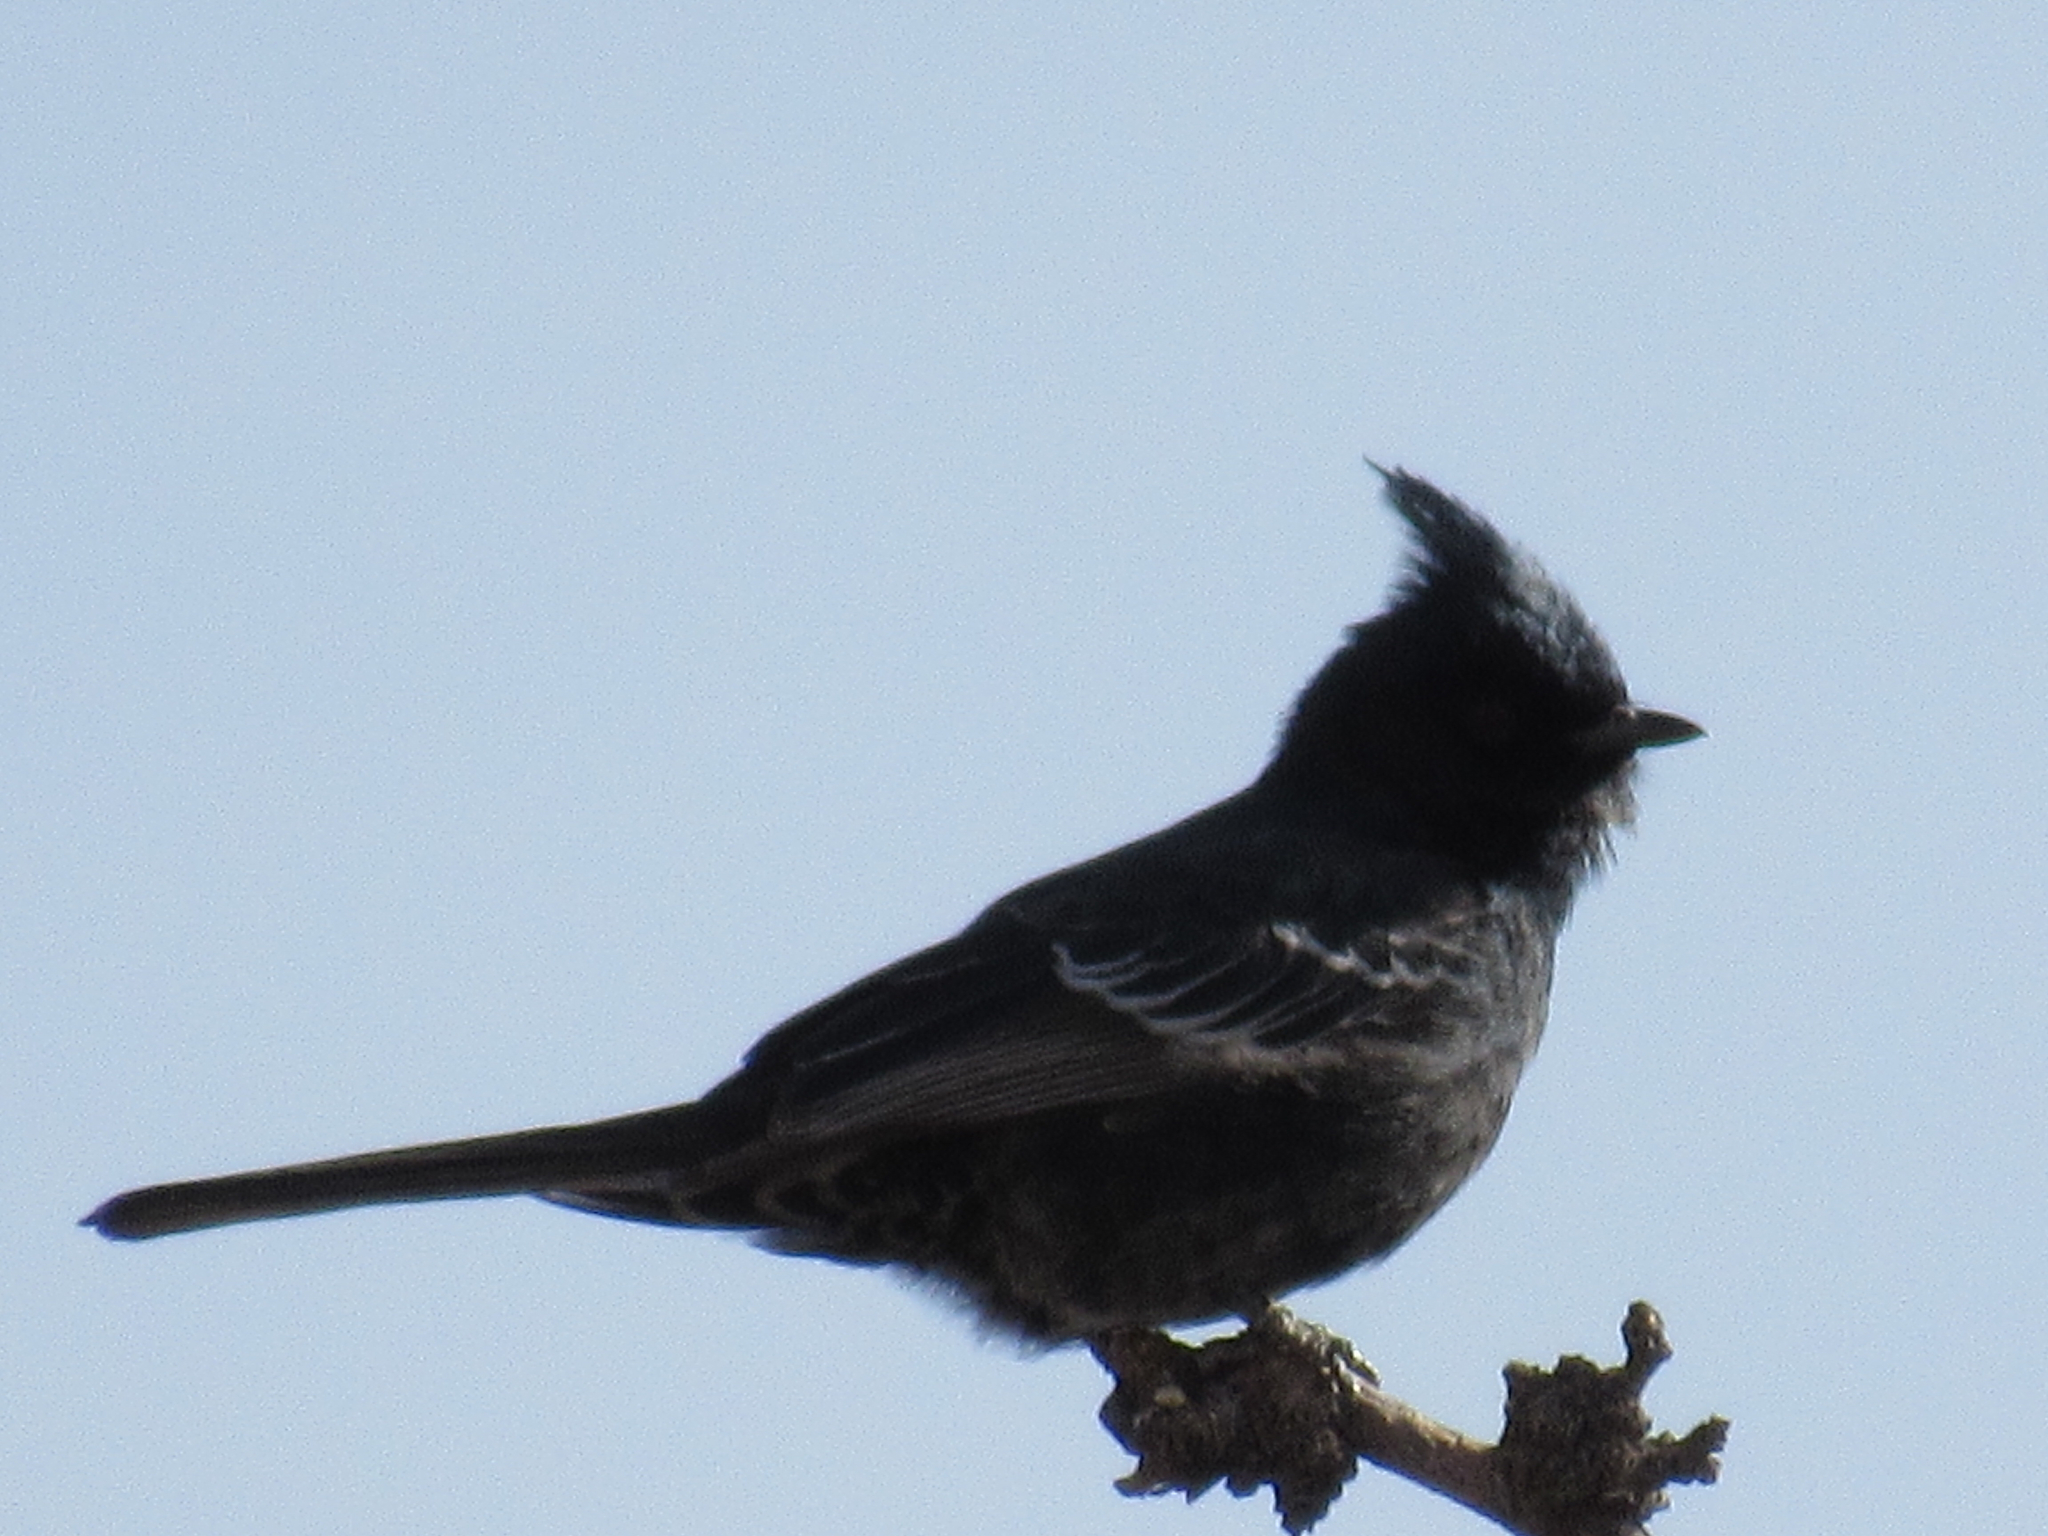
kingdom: Animalia
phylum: Chordata
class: Aves
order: Passeriformes
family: Ptilogonatidae
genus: Phainopepla
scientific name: Phainopepla nitens
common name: Phainopepla
